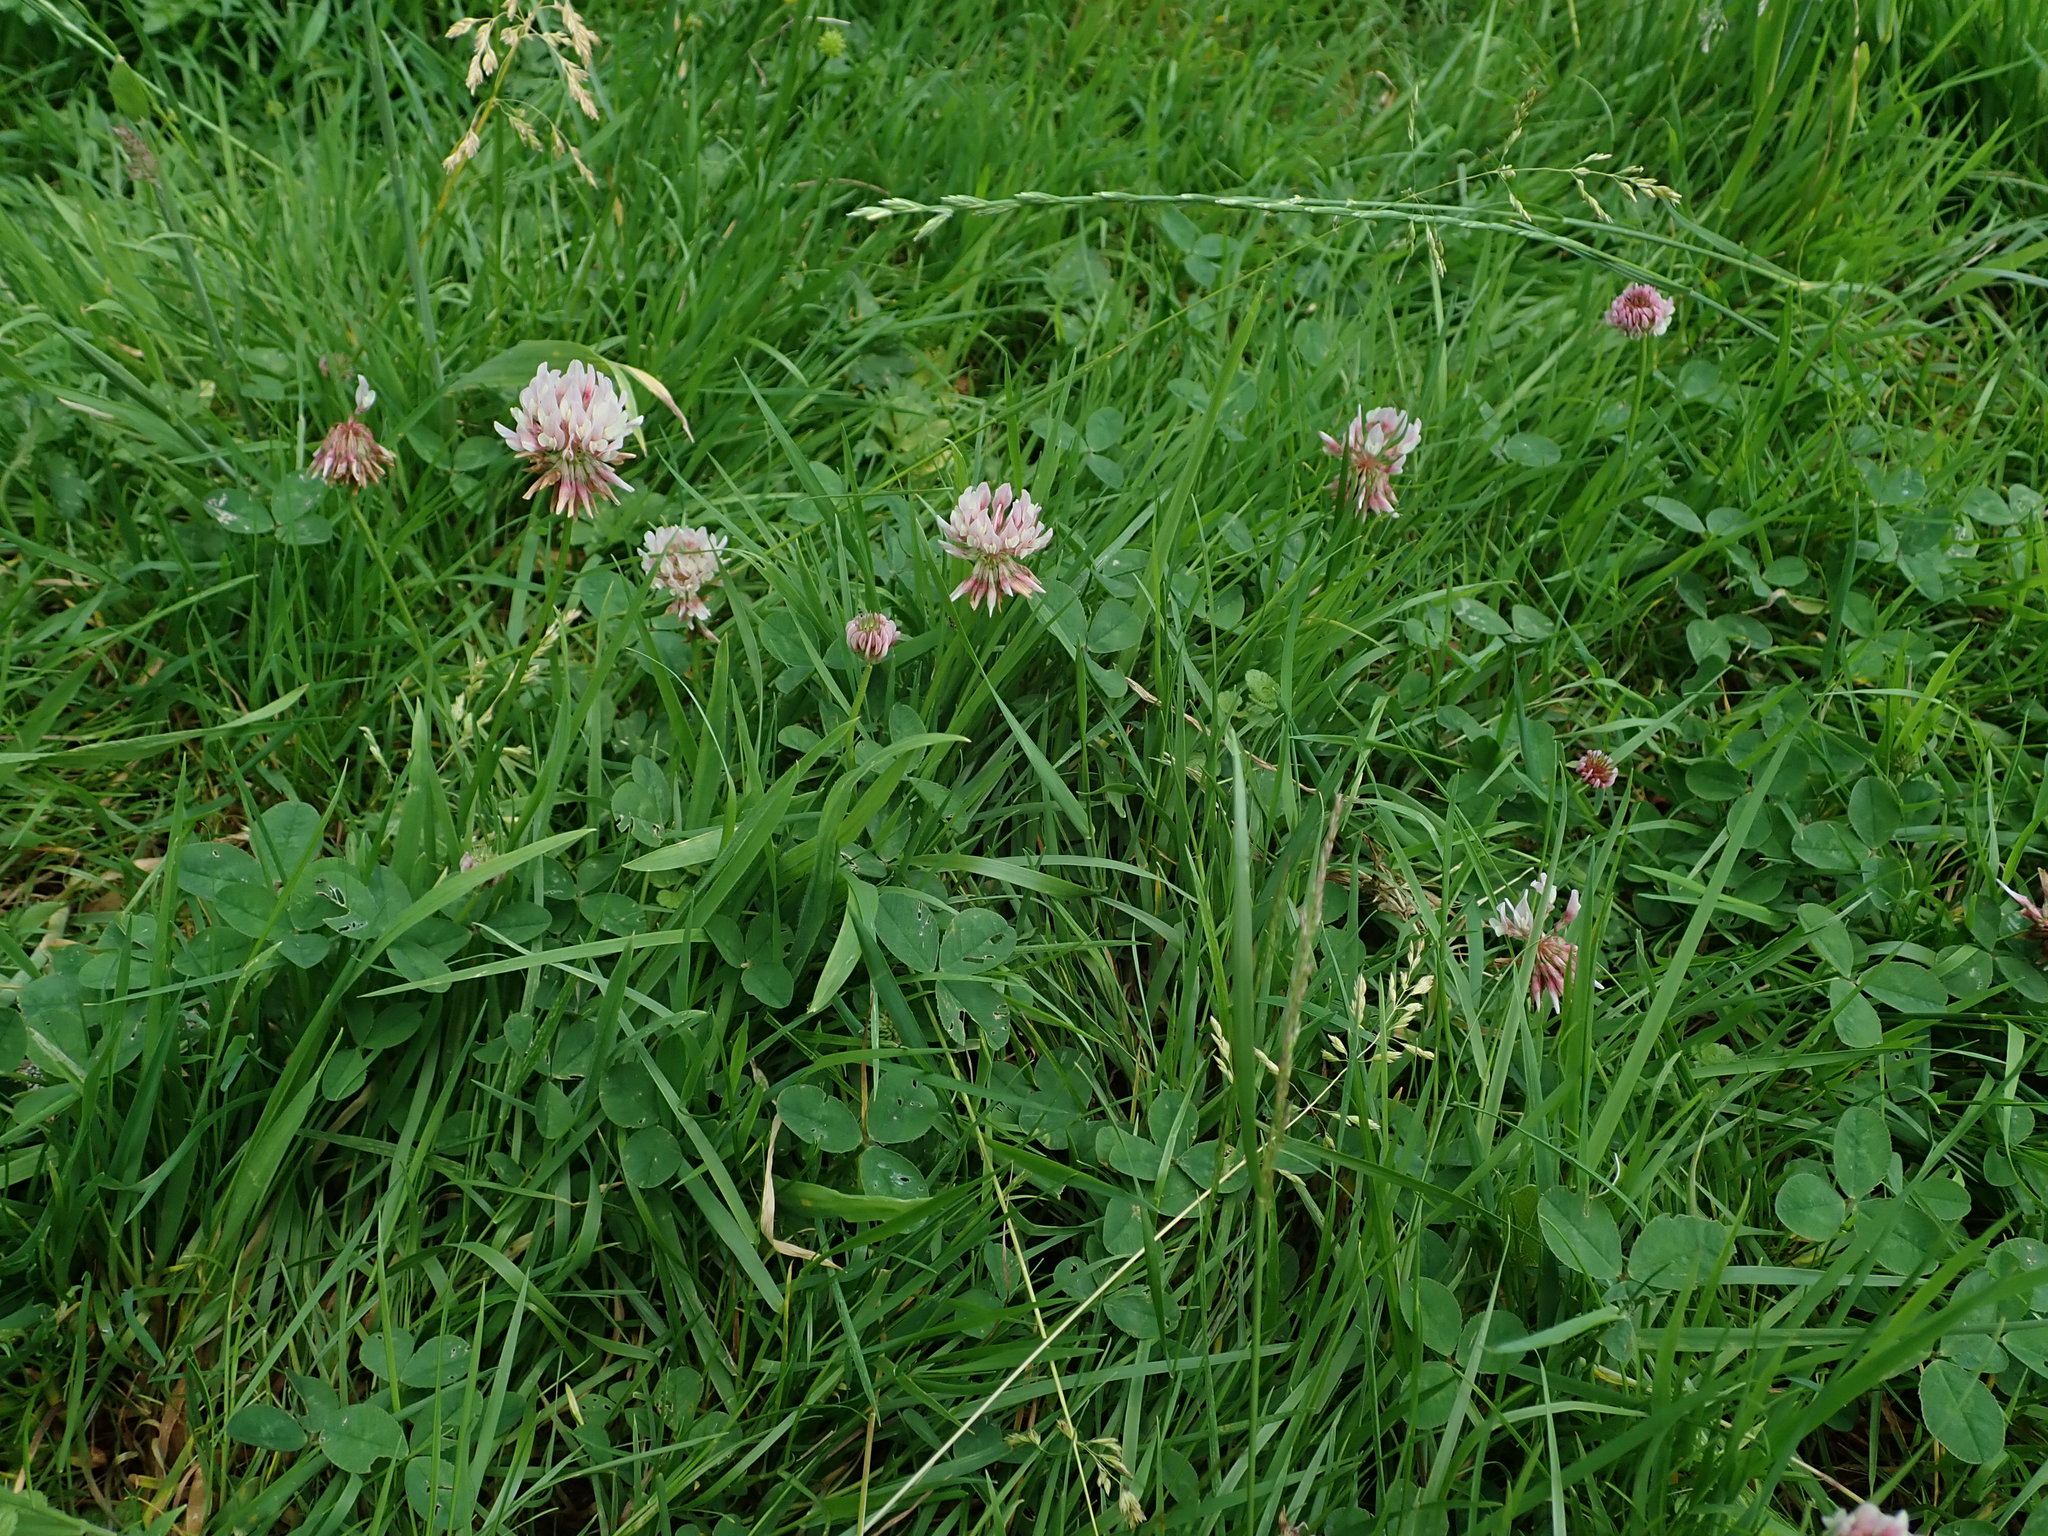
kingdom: Plantae
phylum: Tracheophyta
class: Magnoliopsida
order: Fabales
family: Fabaceae
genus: Trifolium
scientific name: Trifolium repens
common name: White clover
